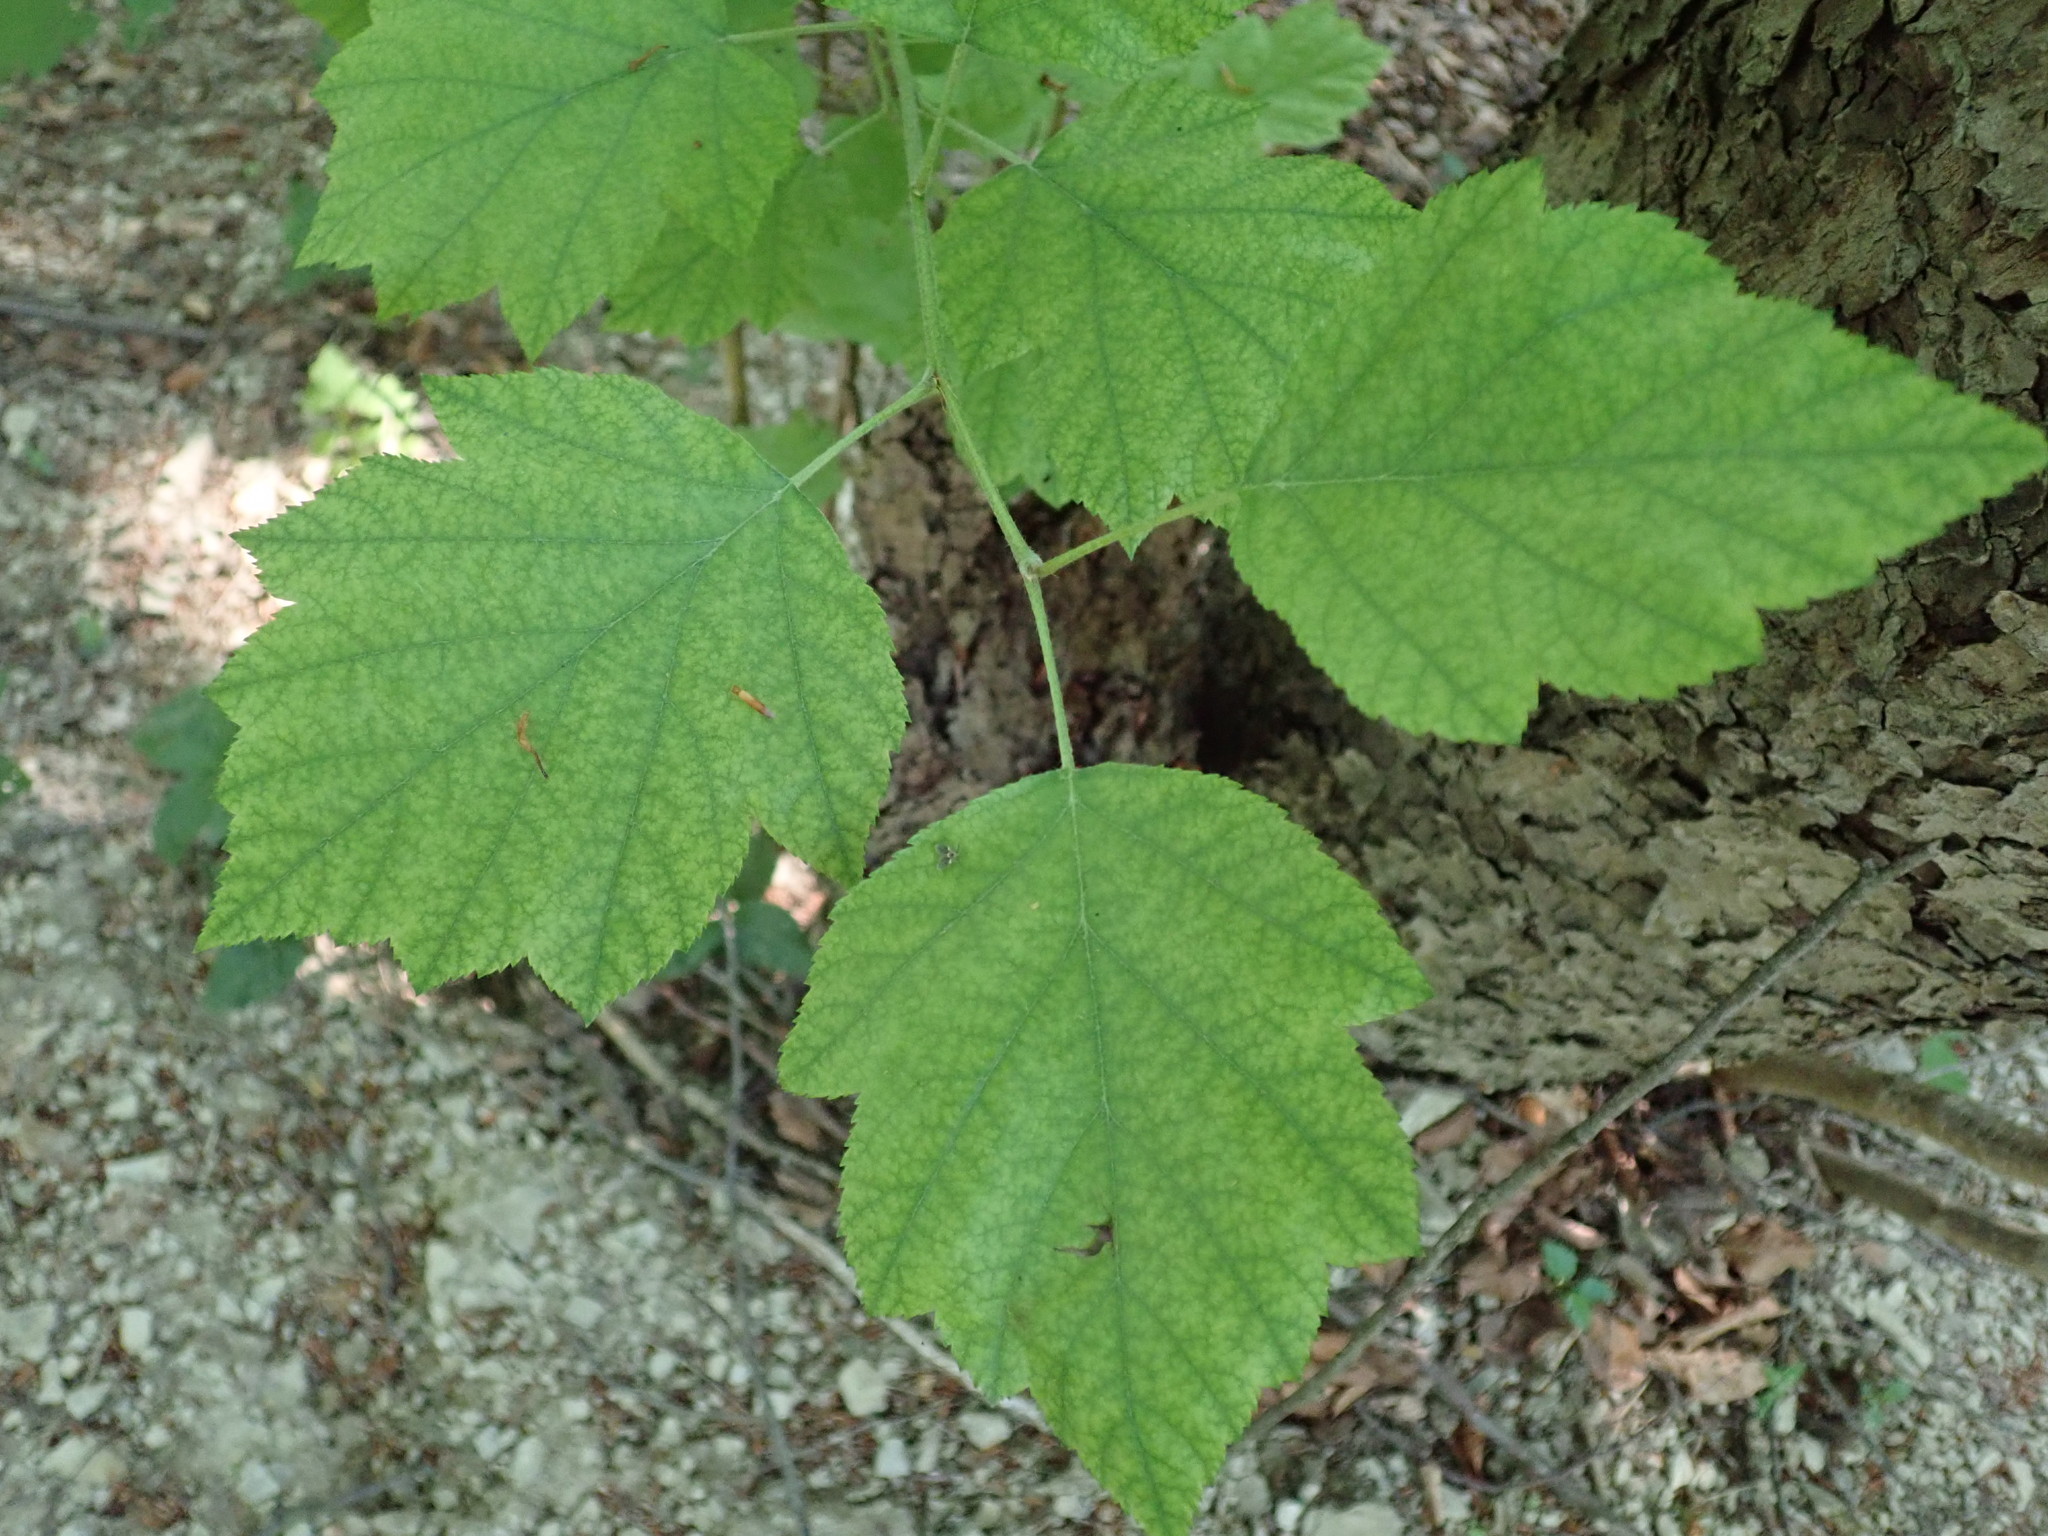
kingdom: Plantae
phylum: Tracheophyta
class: Magnoliopsida
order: Rosales
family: Rosaceae
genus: Torminalis
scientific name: Torminalis glaberrima
